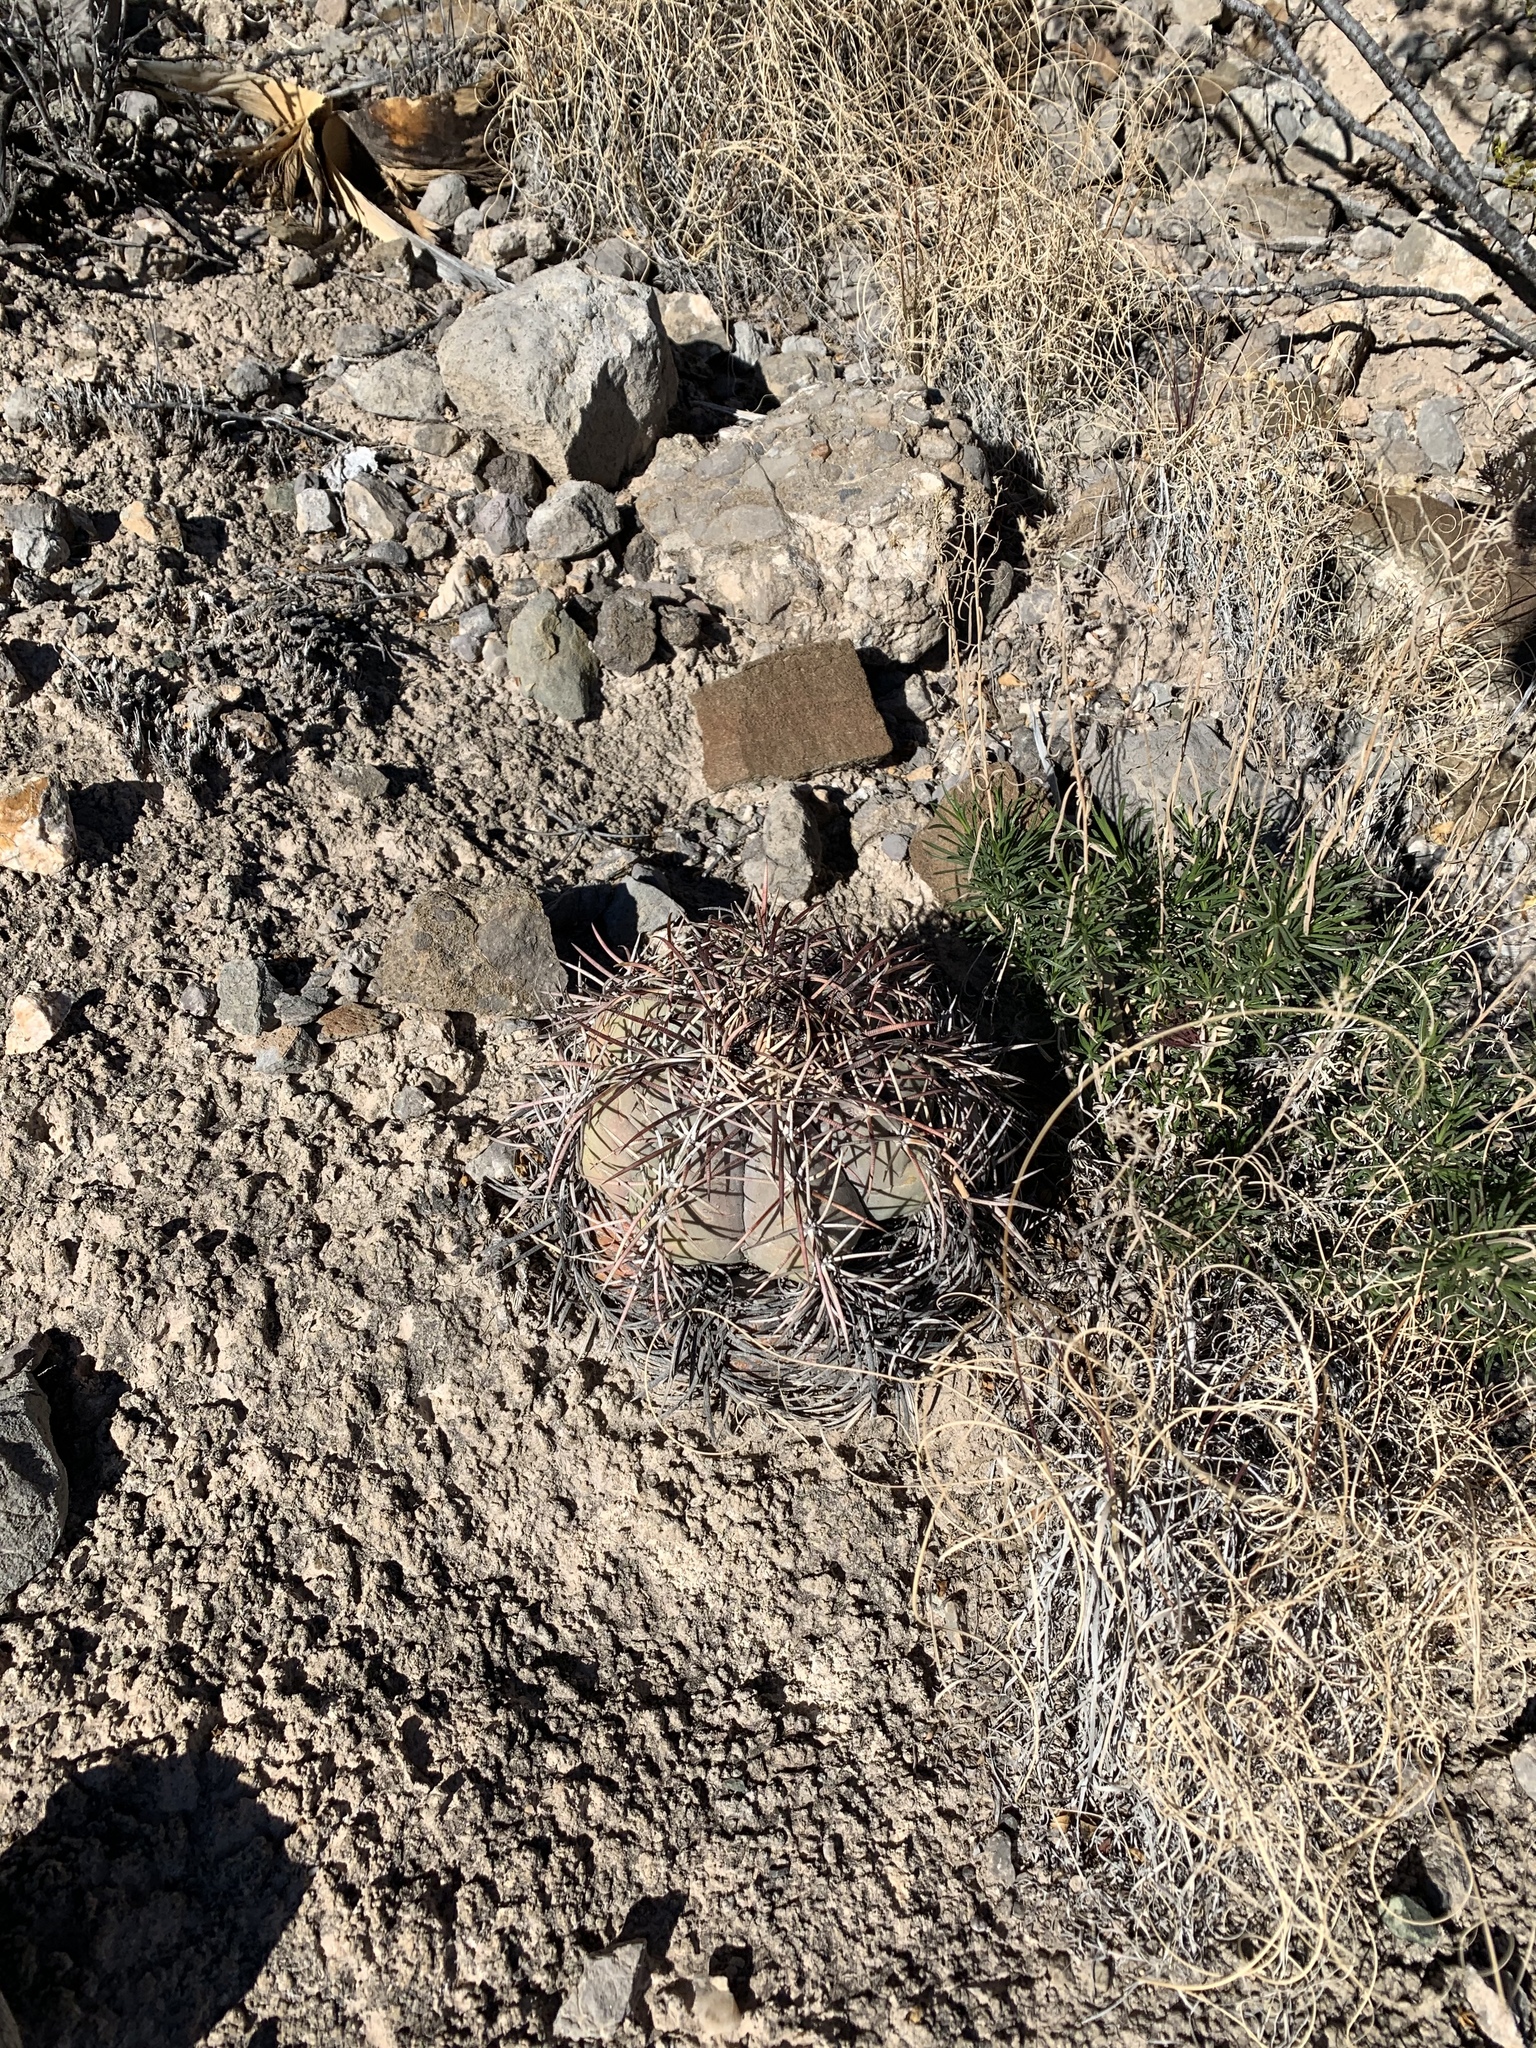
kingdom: Plantae
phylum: Tracheophyta
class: Magnoliopsida
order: Caryophyllales
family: Cactaceae
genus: Echinocactus
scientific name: Echinocactus horizonthalonius
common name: Devilshead
